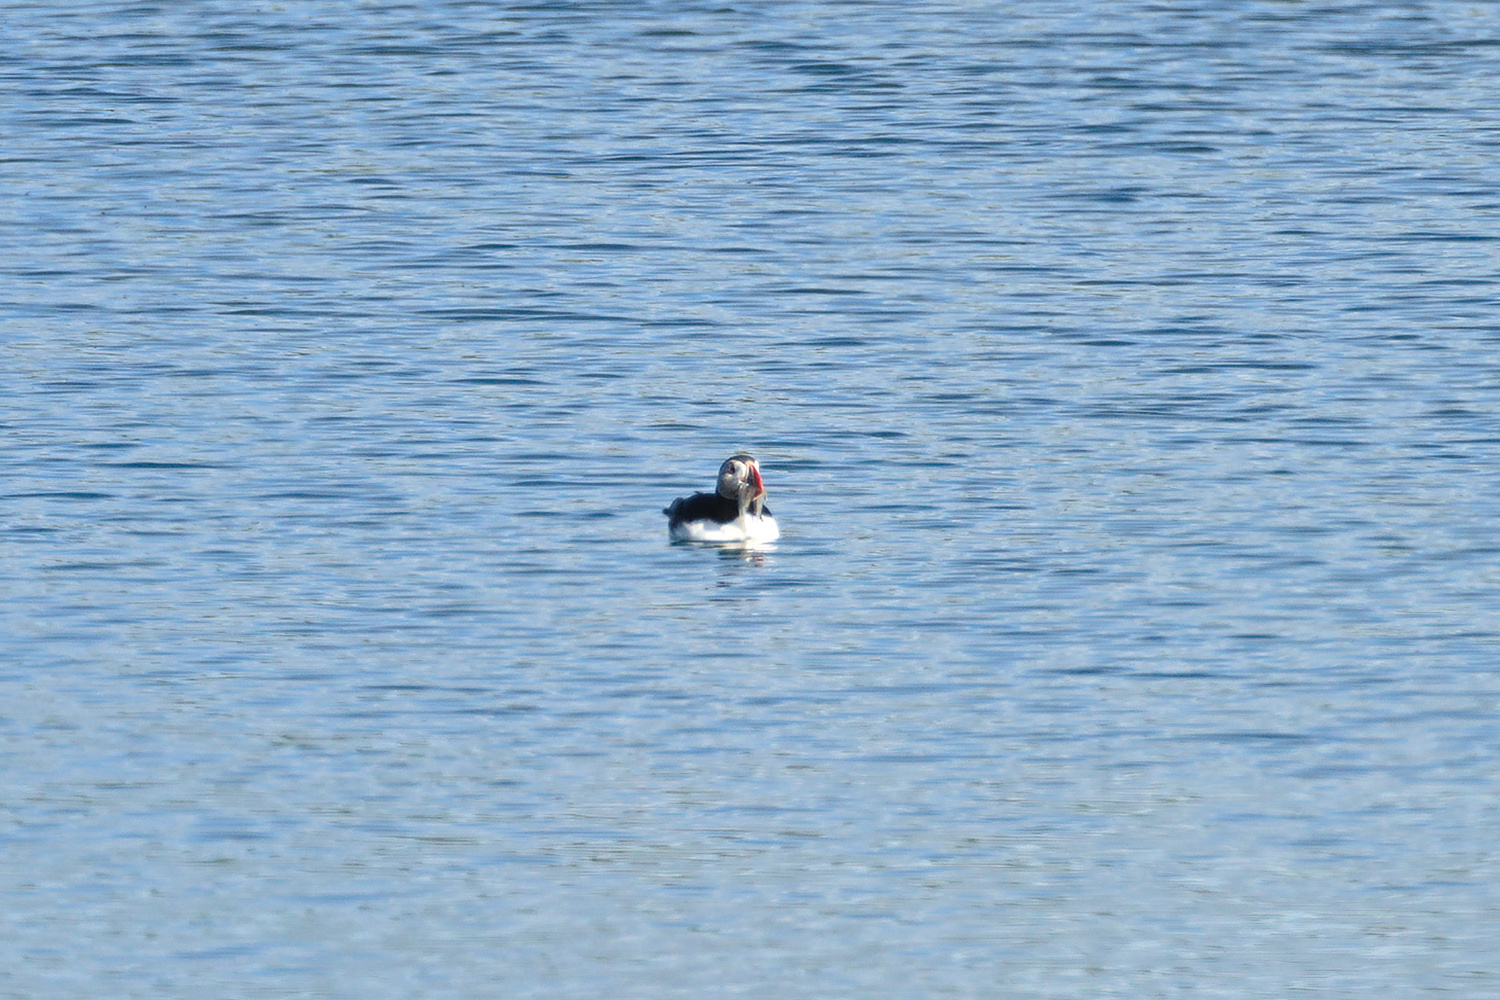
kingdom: Animalia
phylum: Chordata
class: Aves
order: Charadriiformes
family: Alcidae
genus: Fratercula
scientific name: Fratercula arctica
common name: Atlantic puffin
